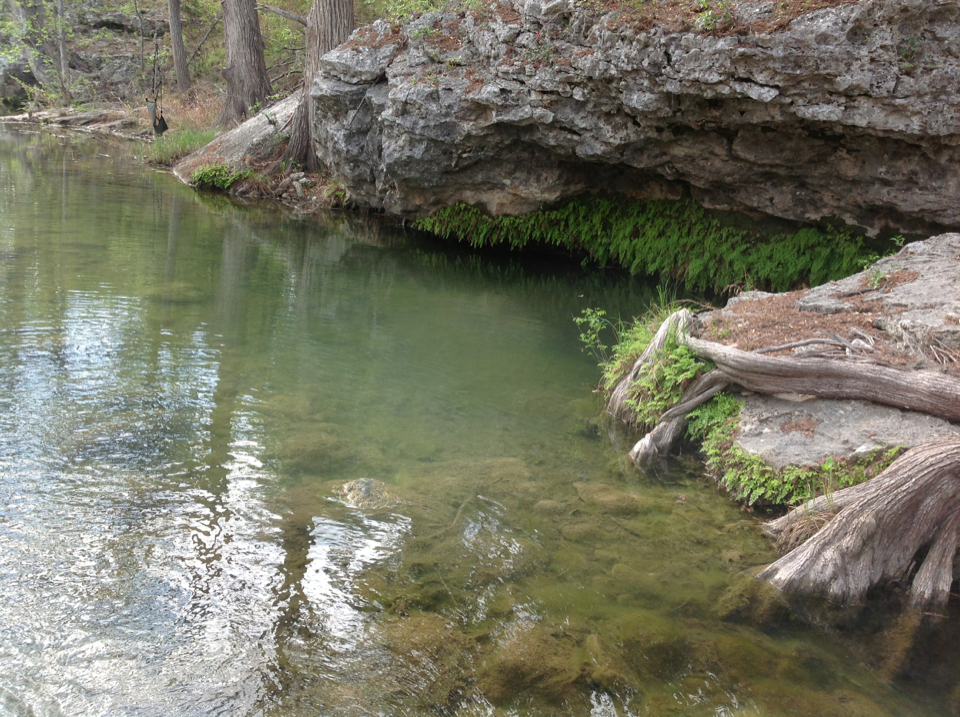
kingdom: Plantae
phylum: Tracheophyta
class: Polypodiopsida
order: Polypodiales
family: Pteridaceae
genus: Adiantum
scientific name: Adiantum capillus-veneris
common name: Maidenhair fern
